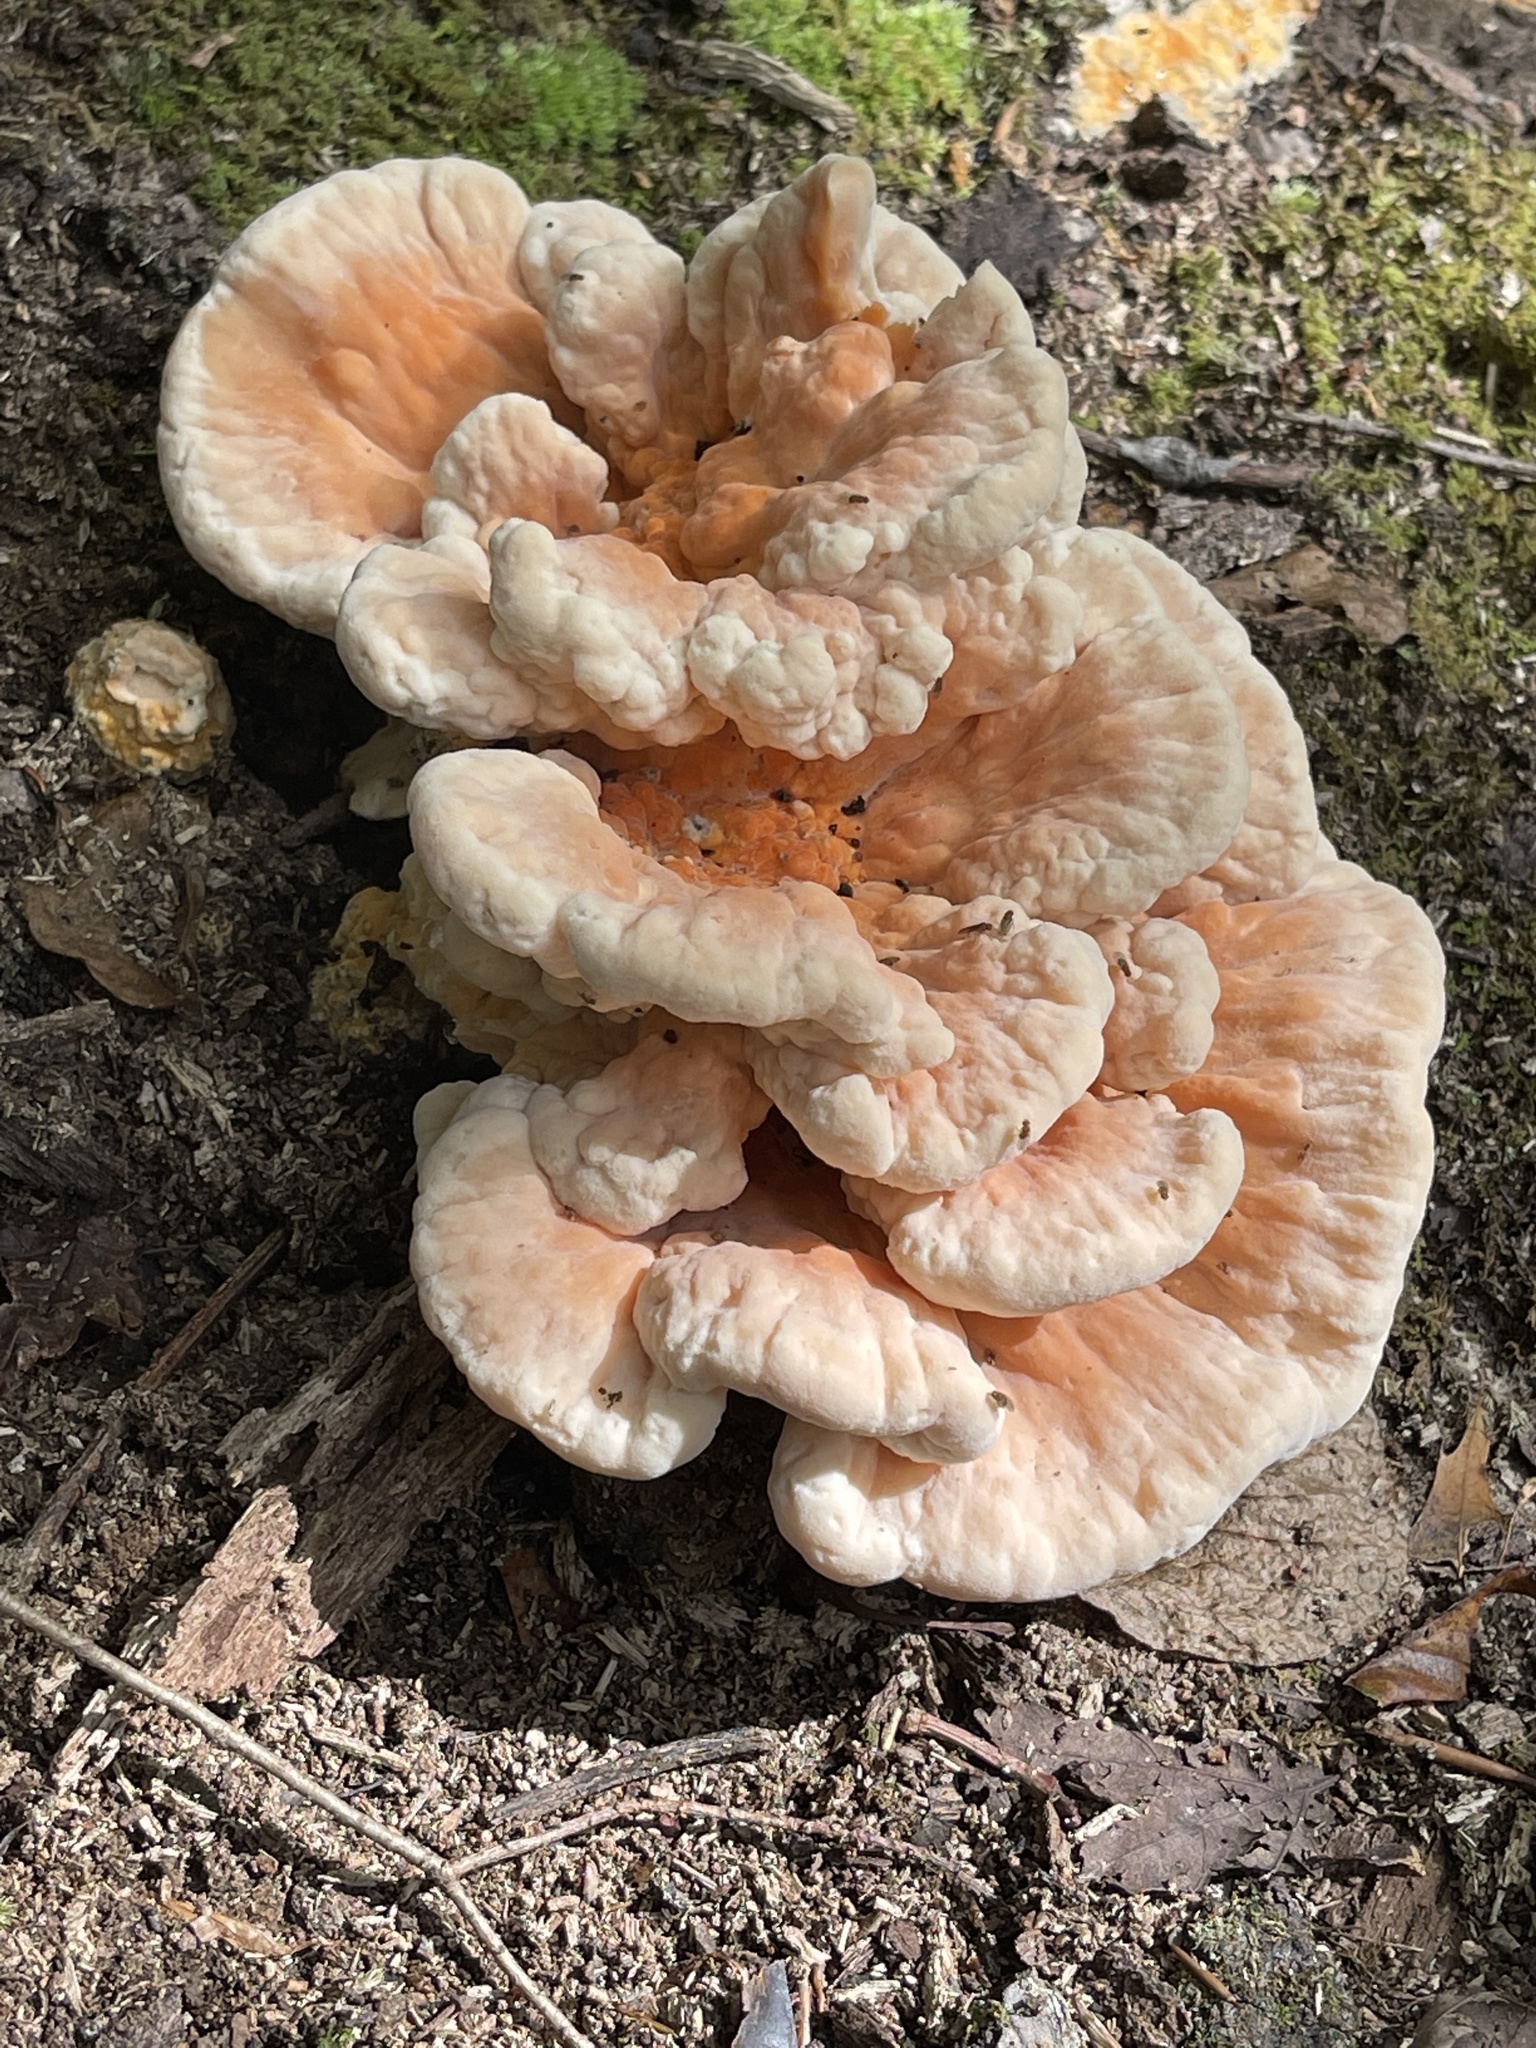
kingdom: Fungi
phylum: Basidiomycota
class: Agaricomycetes
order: Polyporales
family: Laetiporaceae
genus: Laetiporus
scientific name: Laetiporus sulphureus
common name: Chicken of the woods
